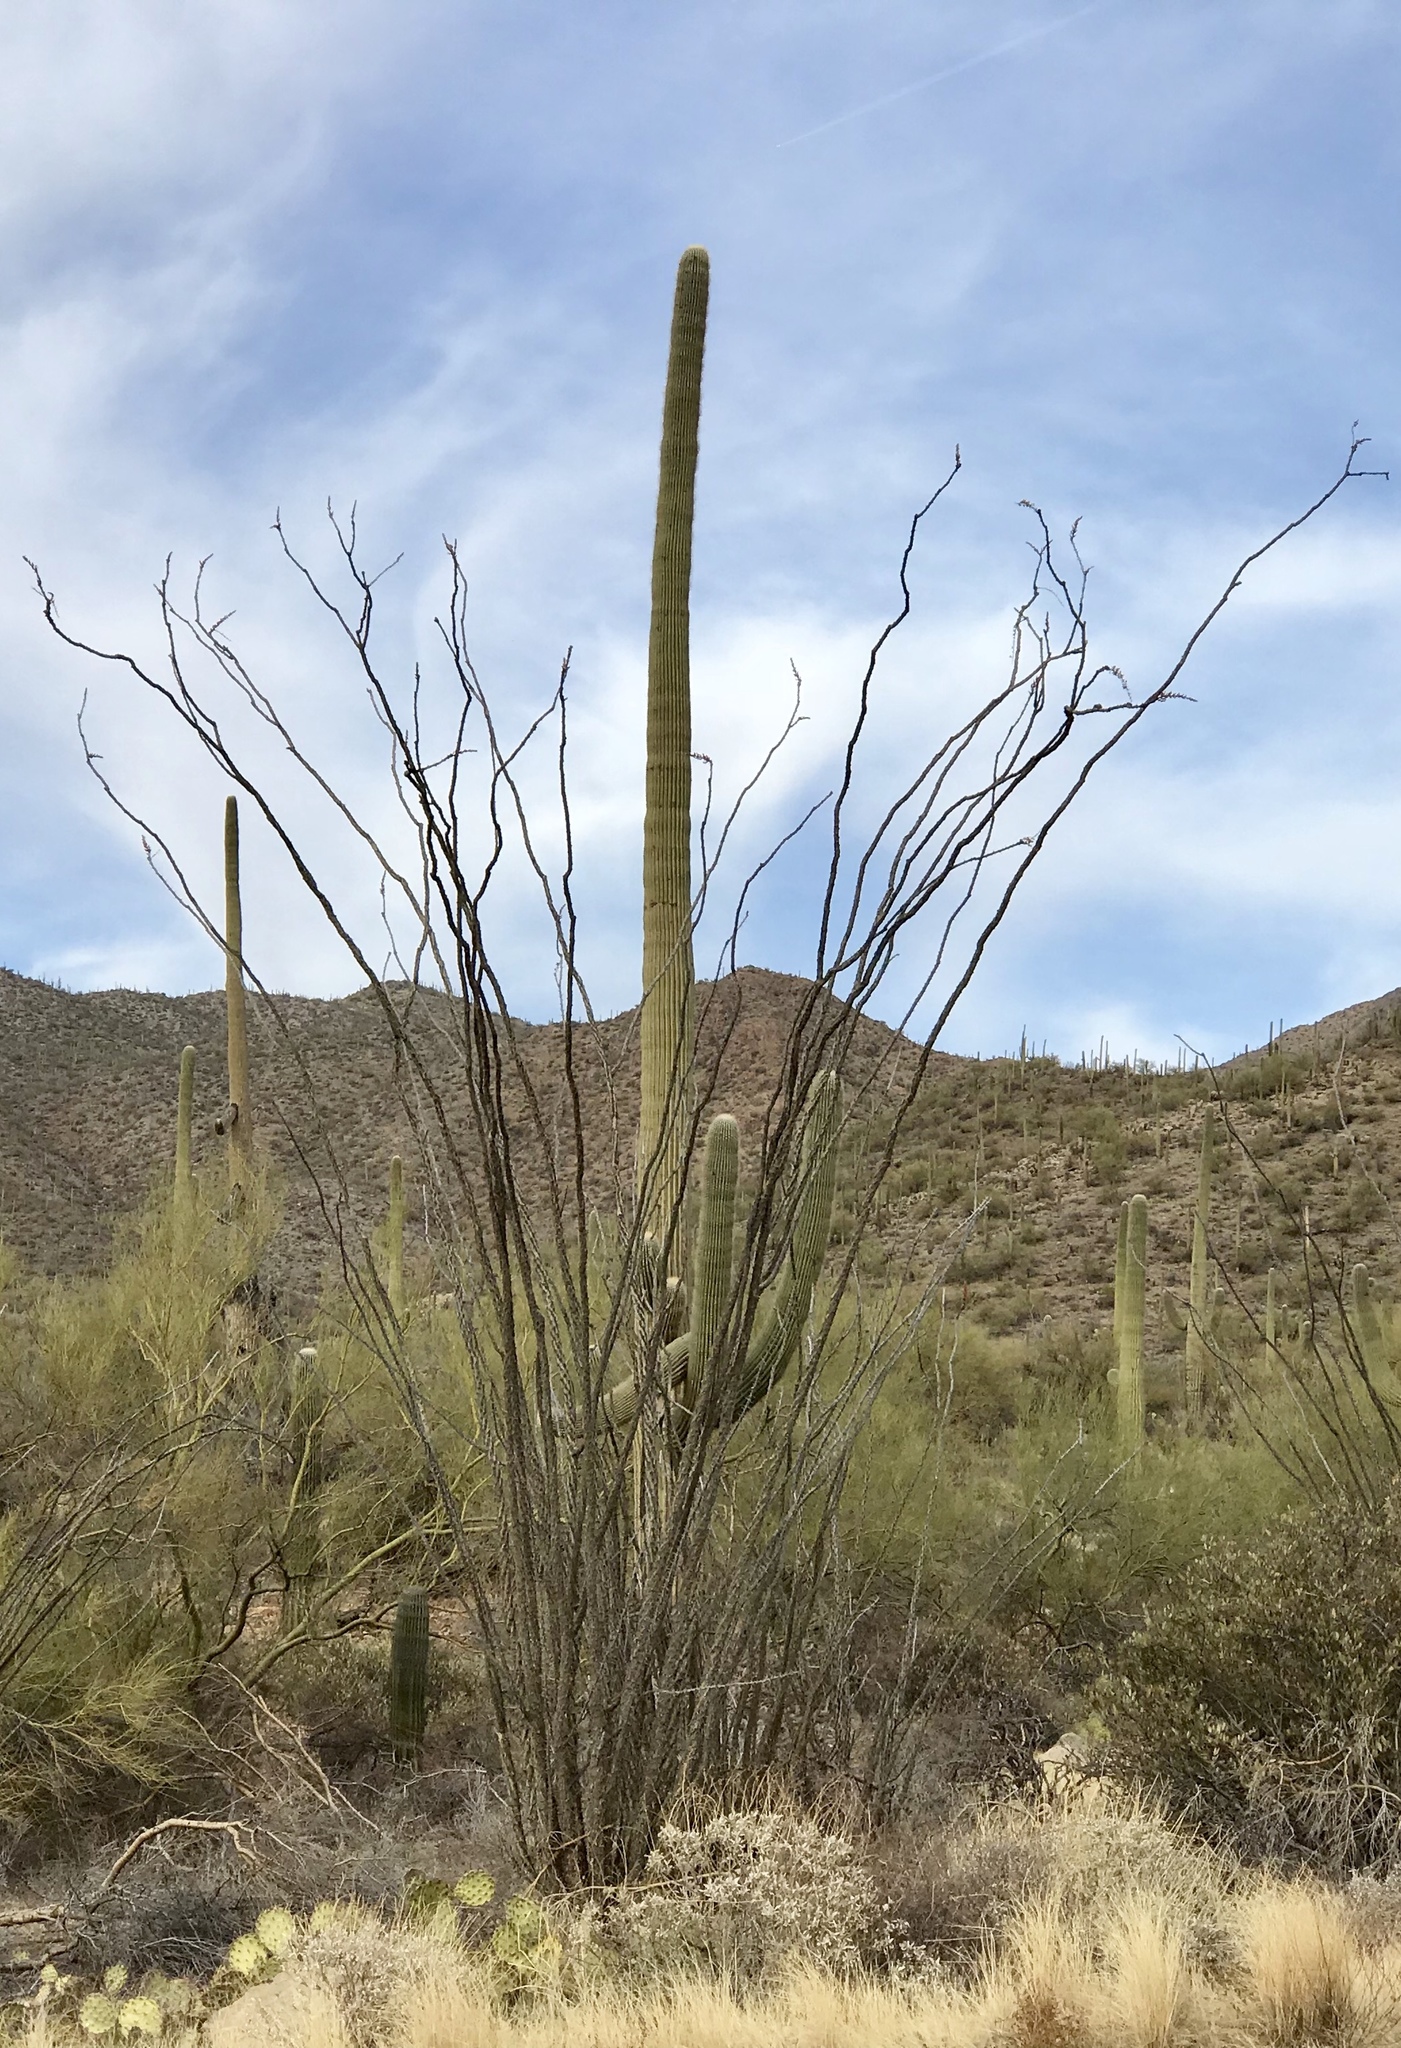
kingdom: Plantae
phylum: Tracheophyta
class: Magnoliopsida
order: Ericales
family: Fouquieriaceae
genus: Fouquieria
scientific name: Fouquieria splendens
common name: Vine-cactus
